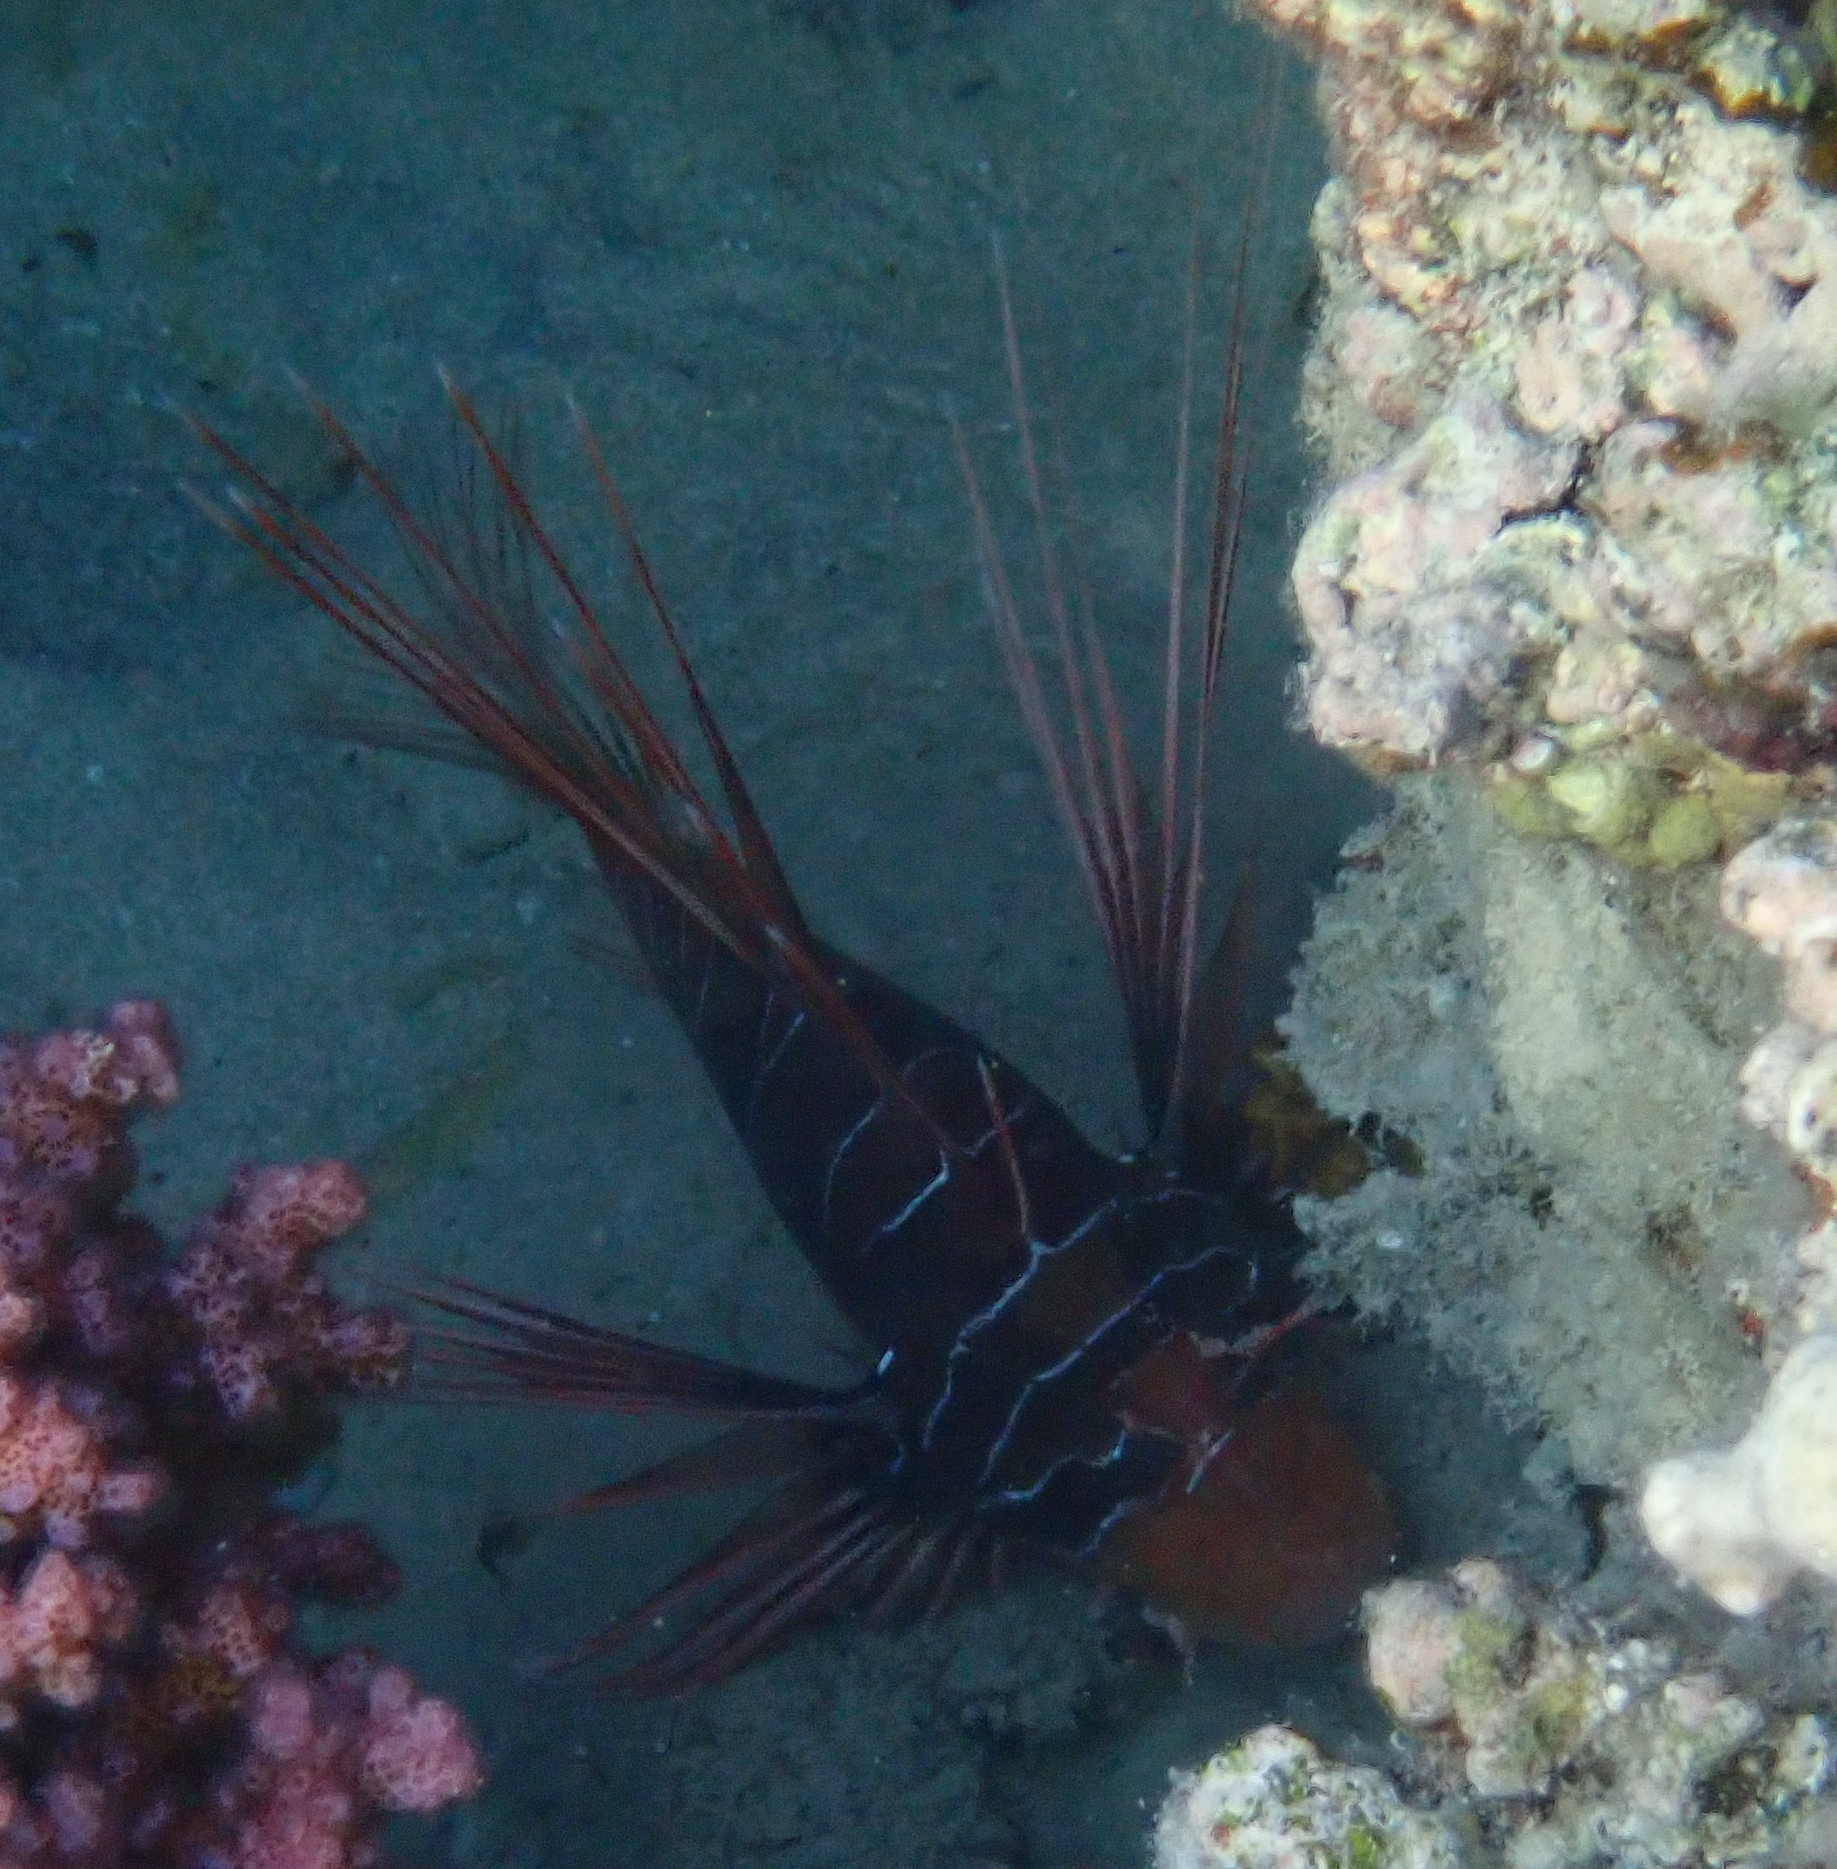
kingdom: Animalia
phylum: Chordata
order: Scorpaeniformes
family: Scorpaenidae
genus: Pterois
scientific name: Pterois cincta
